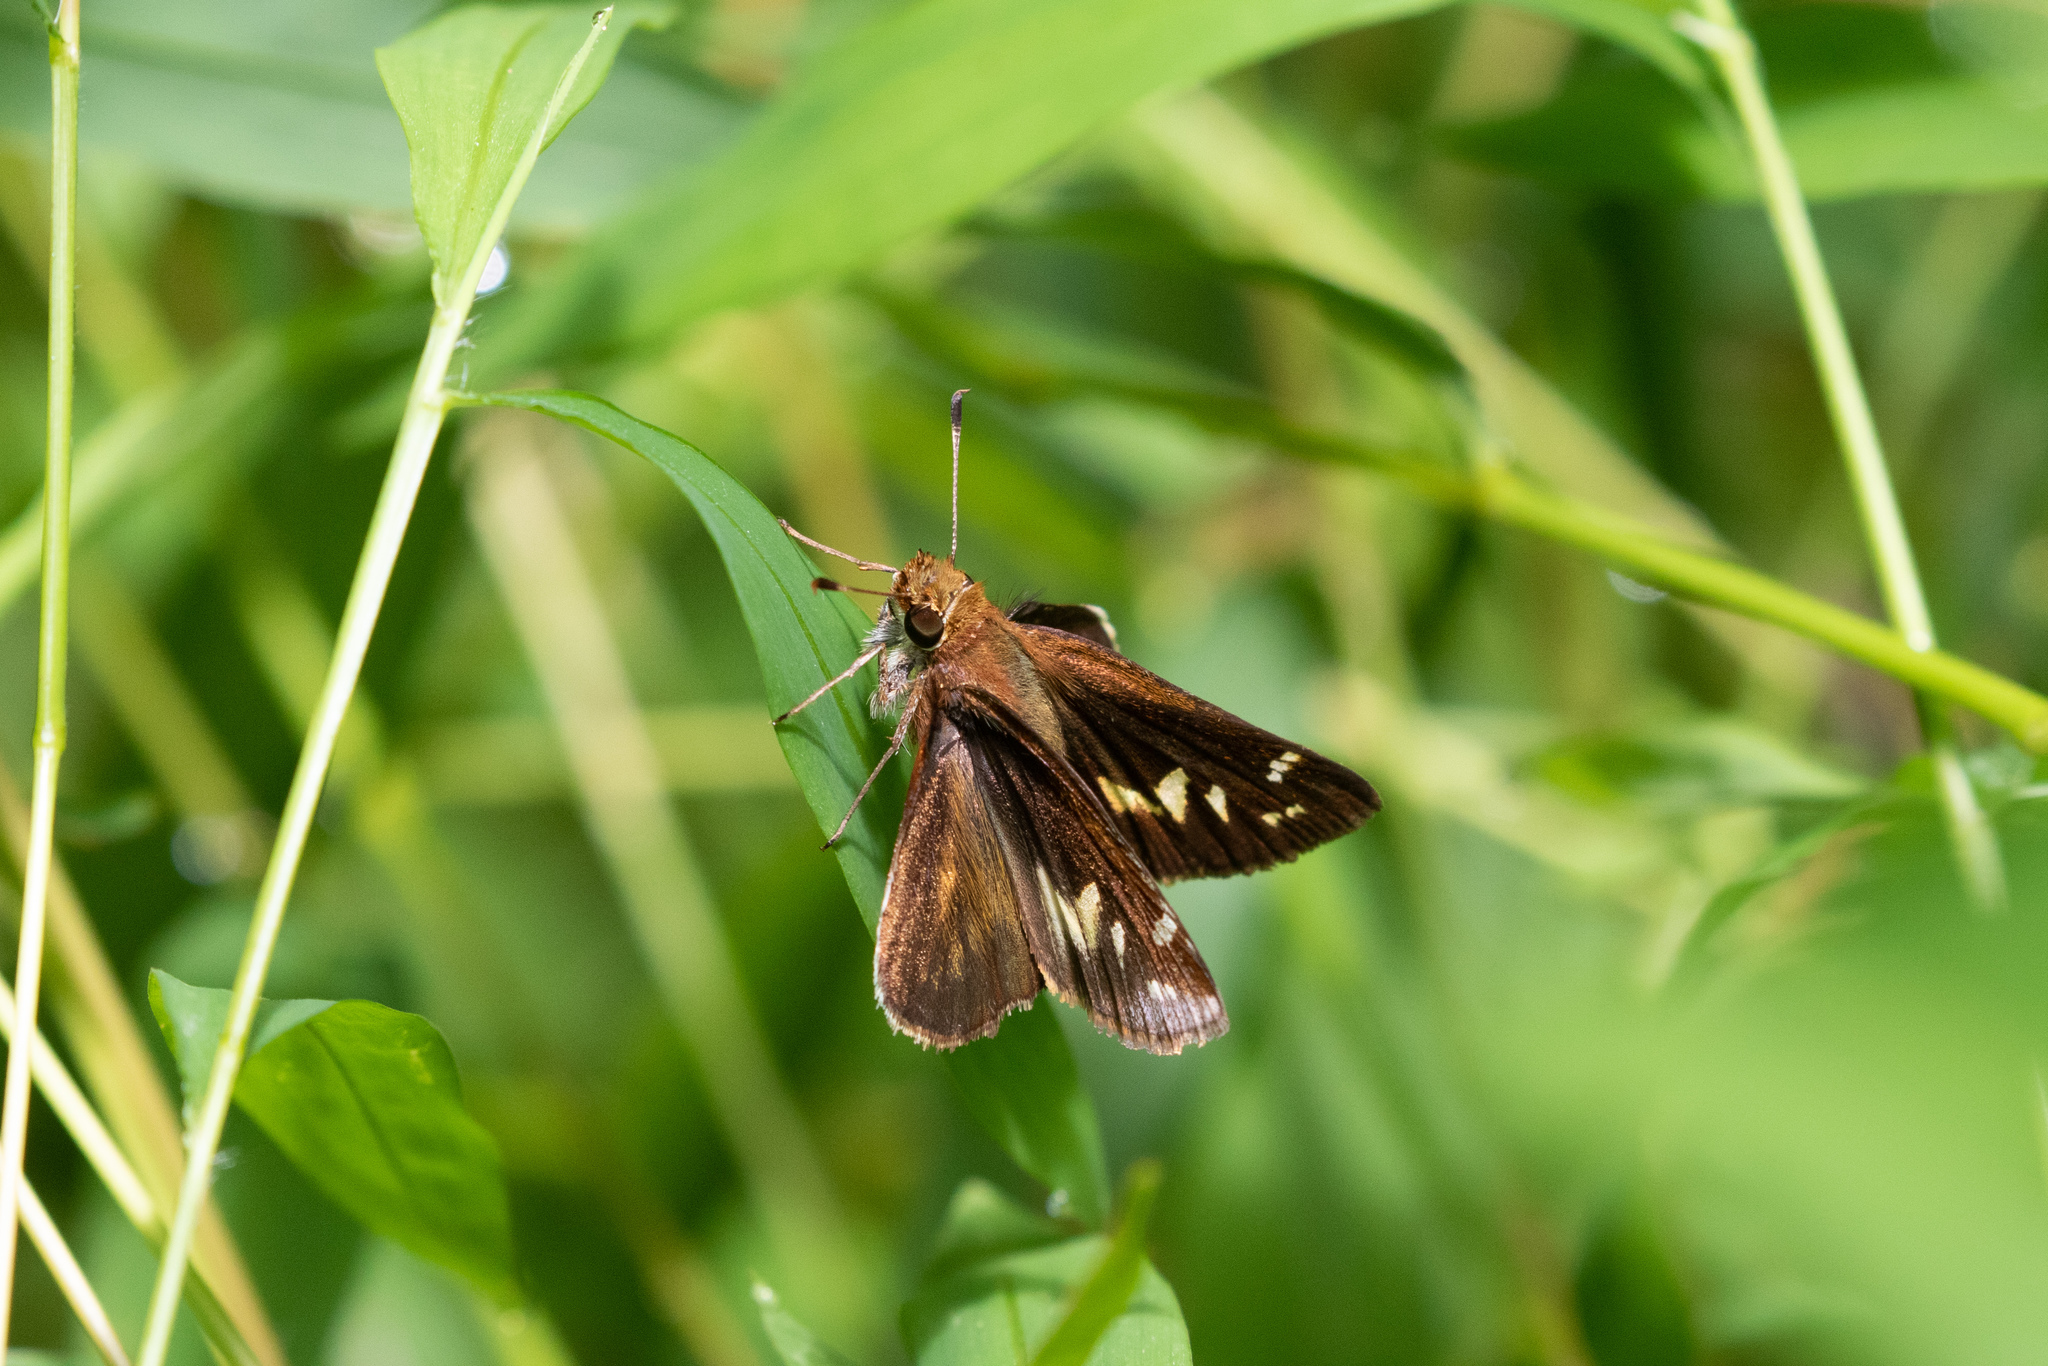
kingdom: Animalia
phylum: Arthropoda
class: Insecta
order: Lepidoptera
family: Hesperiidae
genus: Lon
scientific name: Lon zabulon
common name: Zabulon skipper
